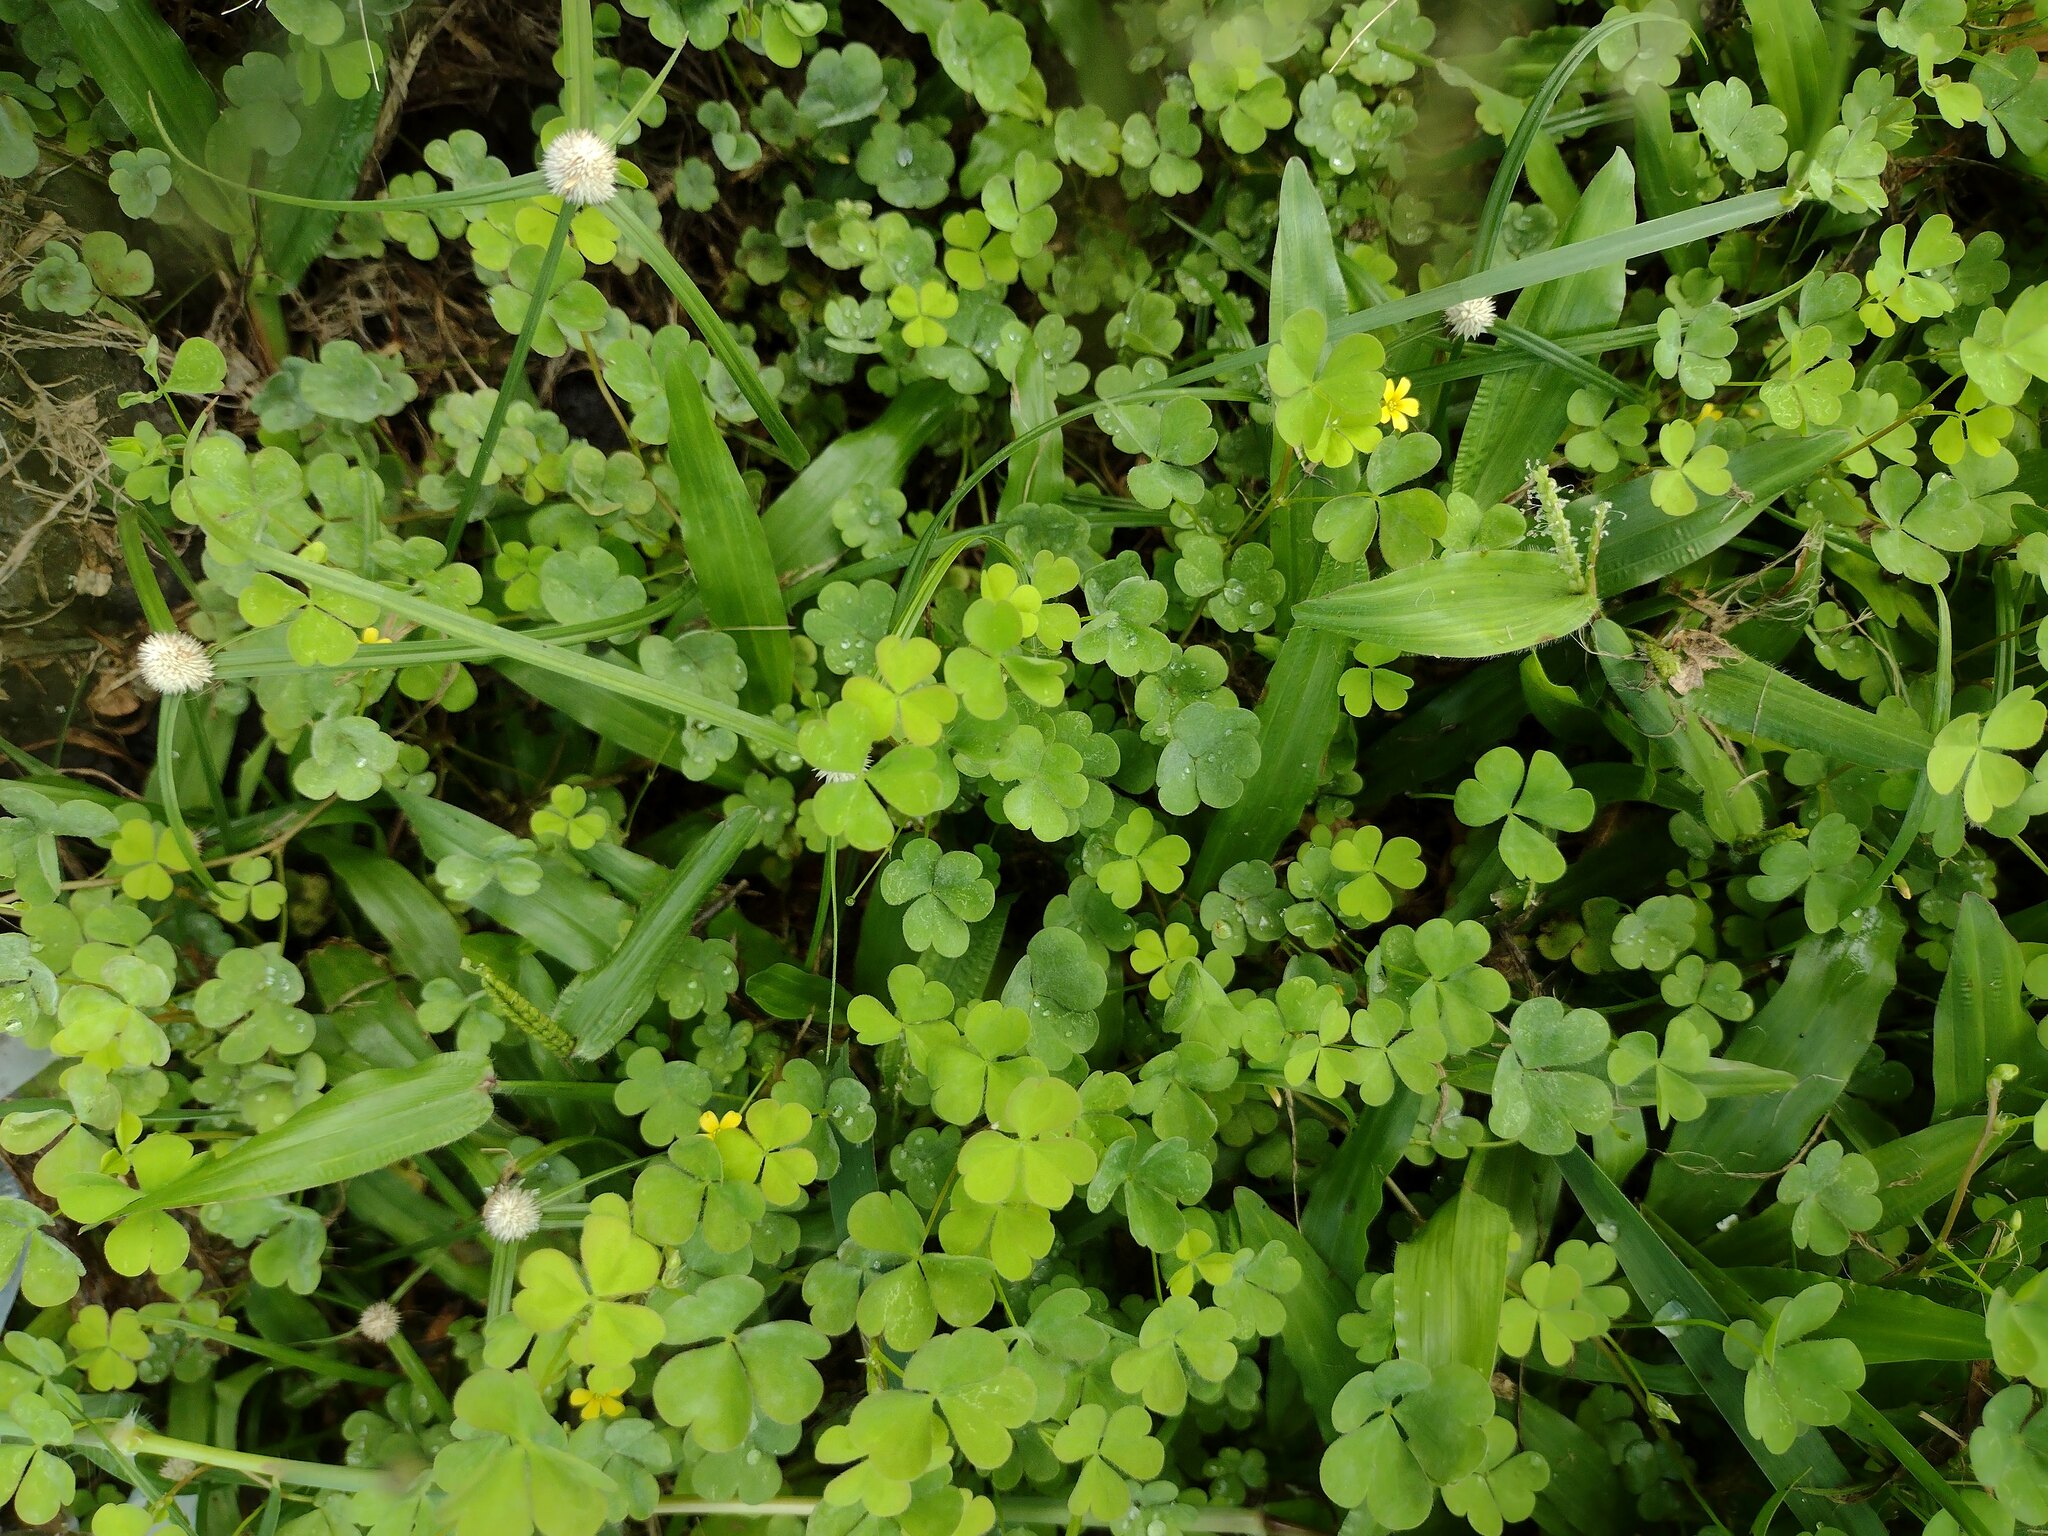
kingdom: Plantae
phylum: Tracheophyta
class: Magnoliopsida
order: Oxalidales
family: Oxalidaceae
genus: Oxalis
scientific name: Oxalis corniculata
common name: Procumbent yellow-sorrel
